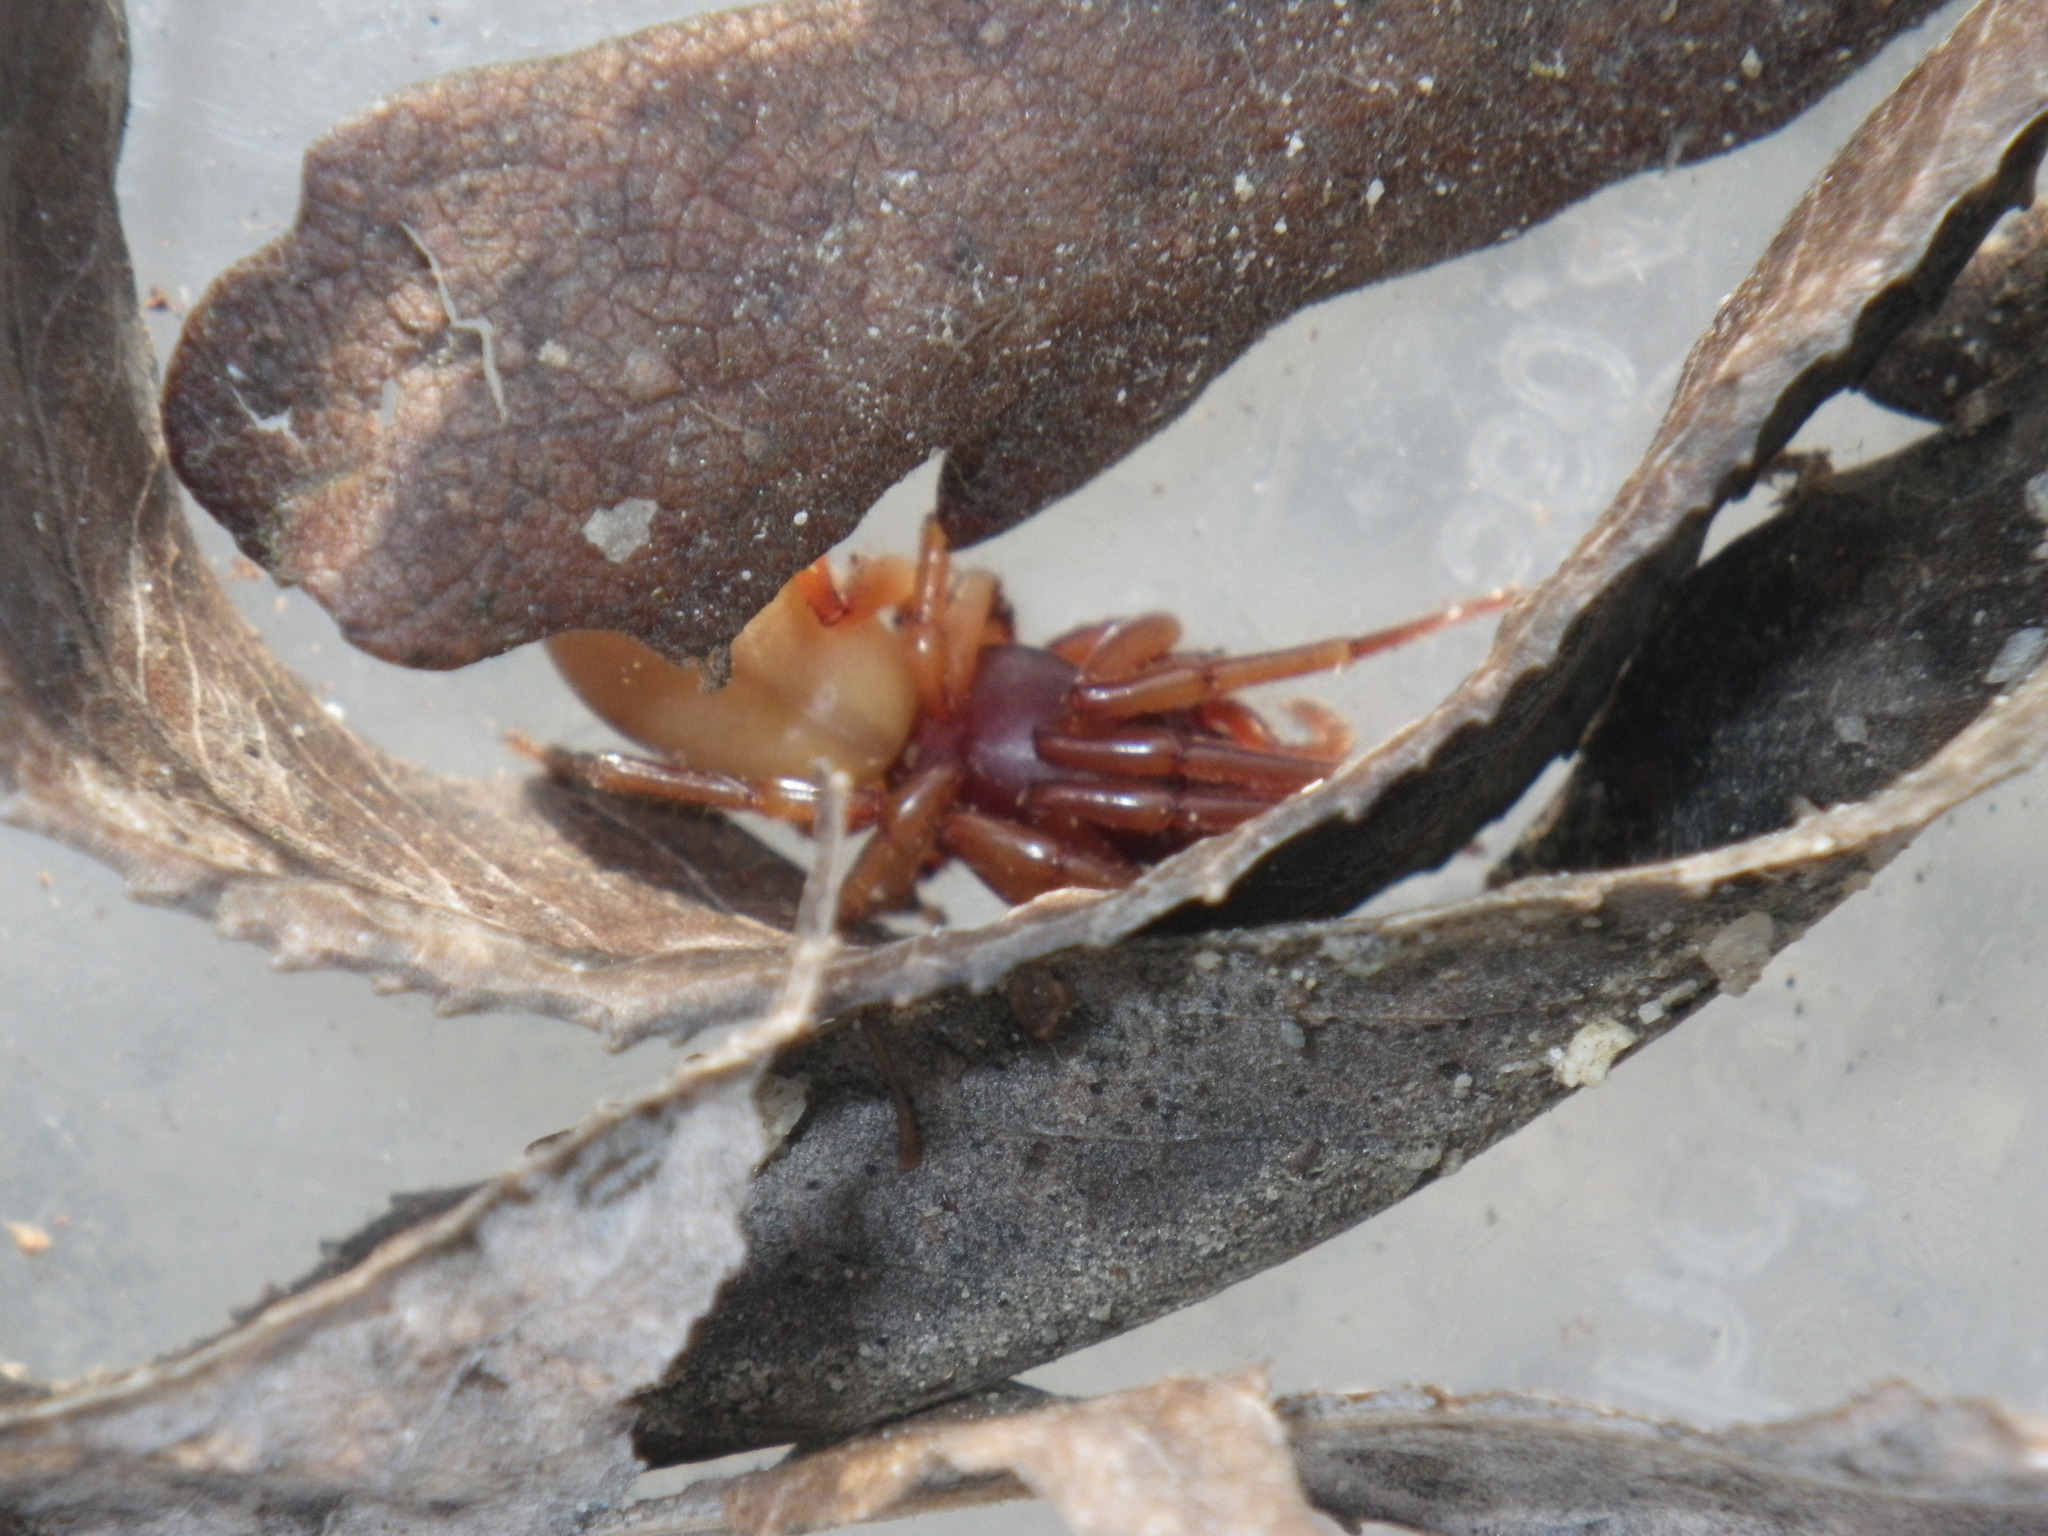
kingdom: Animalia
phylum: Arthropoda
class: Arachnida
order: Araneae
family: Dysderidae
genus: Dysdera
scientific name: Dysdera crocata
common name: Woodlouse spider
